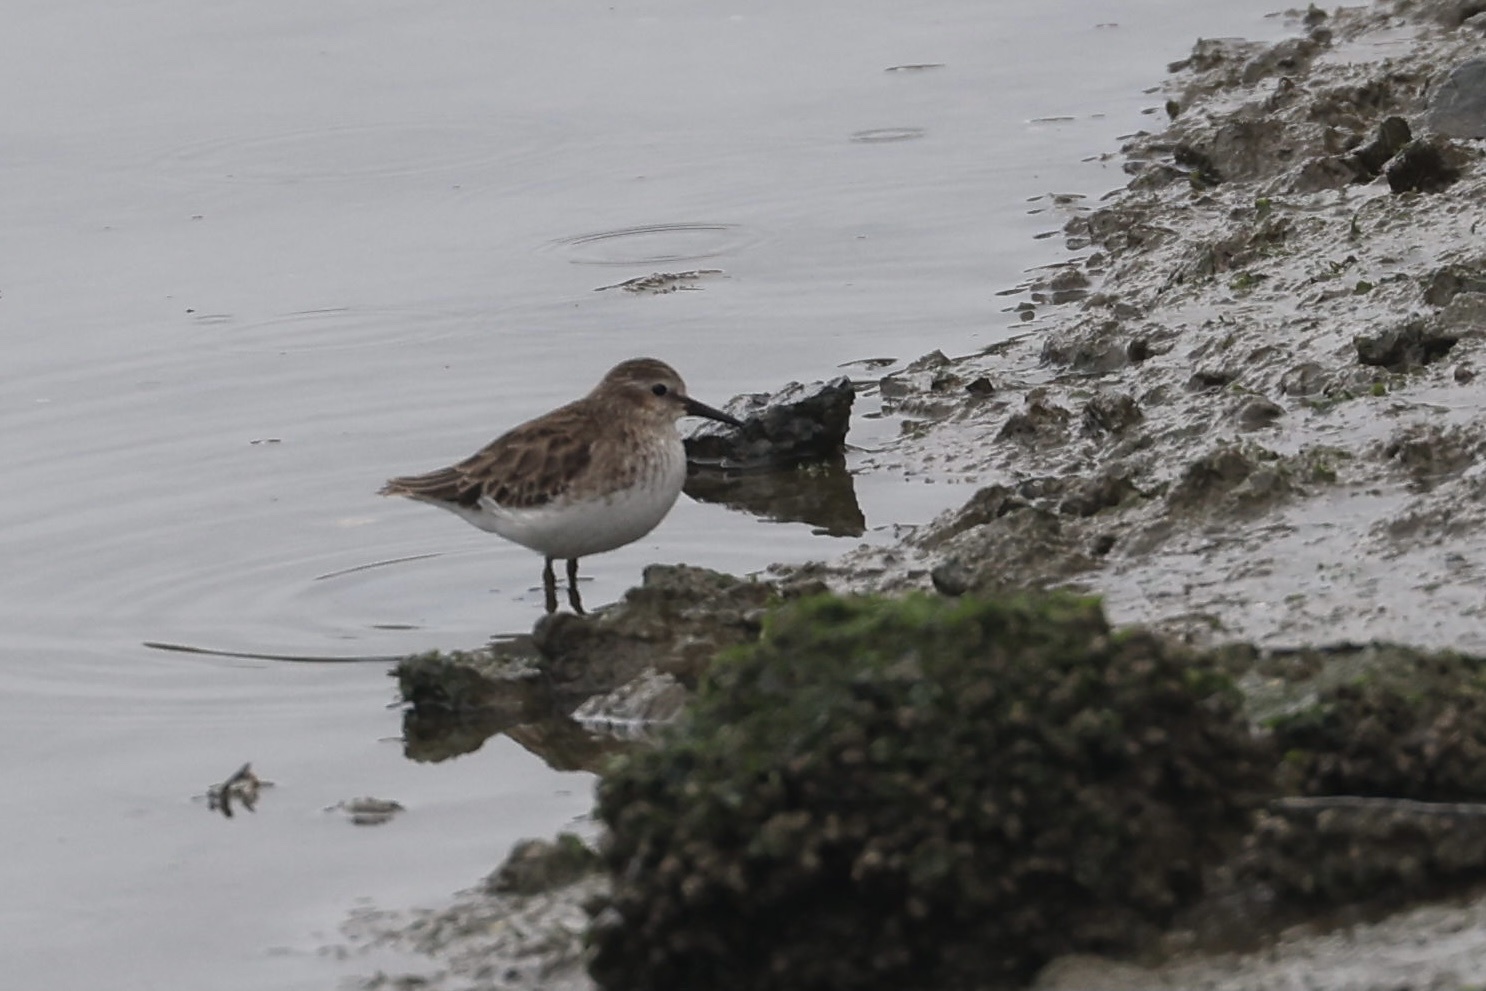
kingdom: Animalia
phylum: Chordata
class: Aves
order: Charadriiformes
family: Scolopacidae
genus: Calidris
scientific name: Calidris minutilla
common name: Least sandpiper
